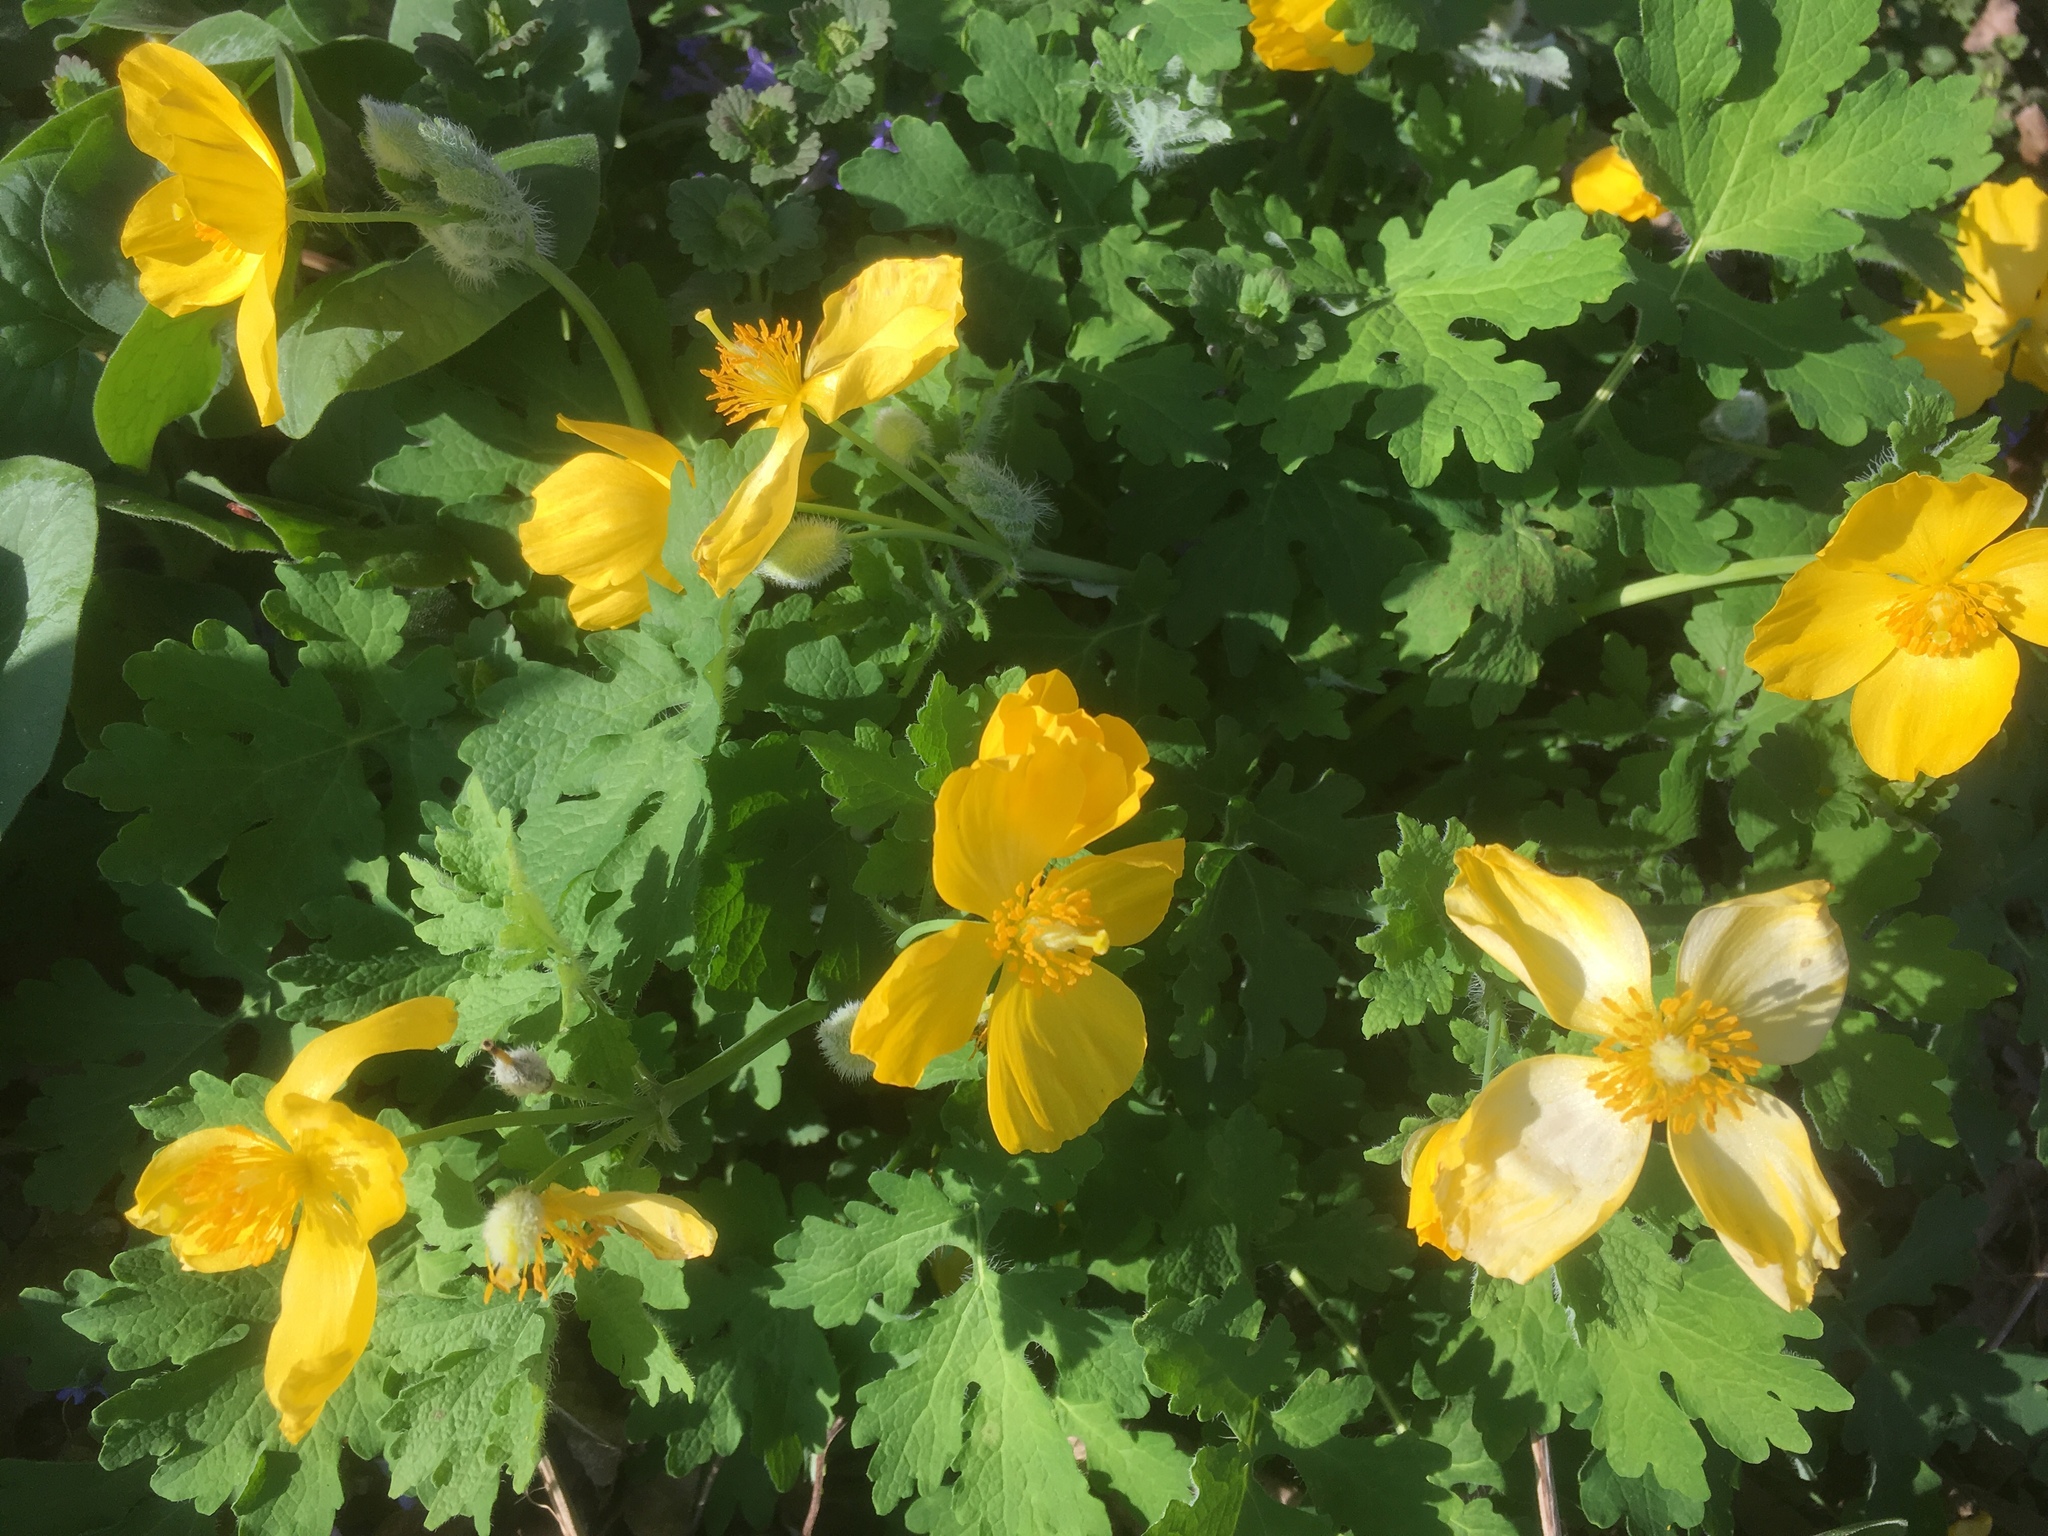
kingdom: Plantae
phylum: Tracheophyta
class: Magnoliopsida
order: Ranunculales
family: Papaveraceae
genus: Stylophorum
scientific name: Stylophorum diphyllum
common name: Celandine poppy
